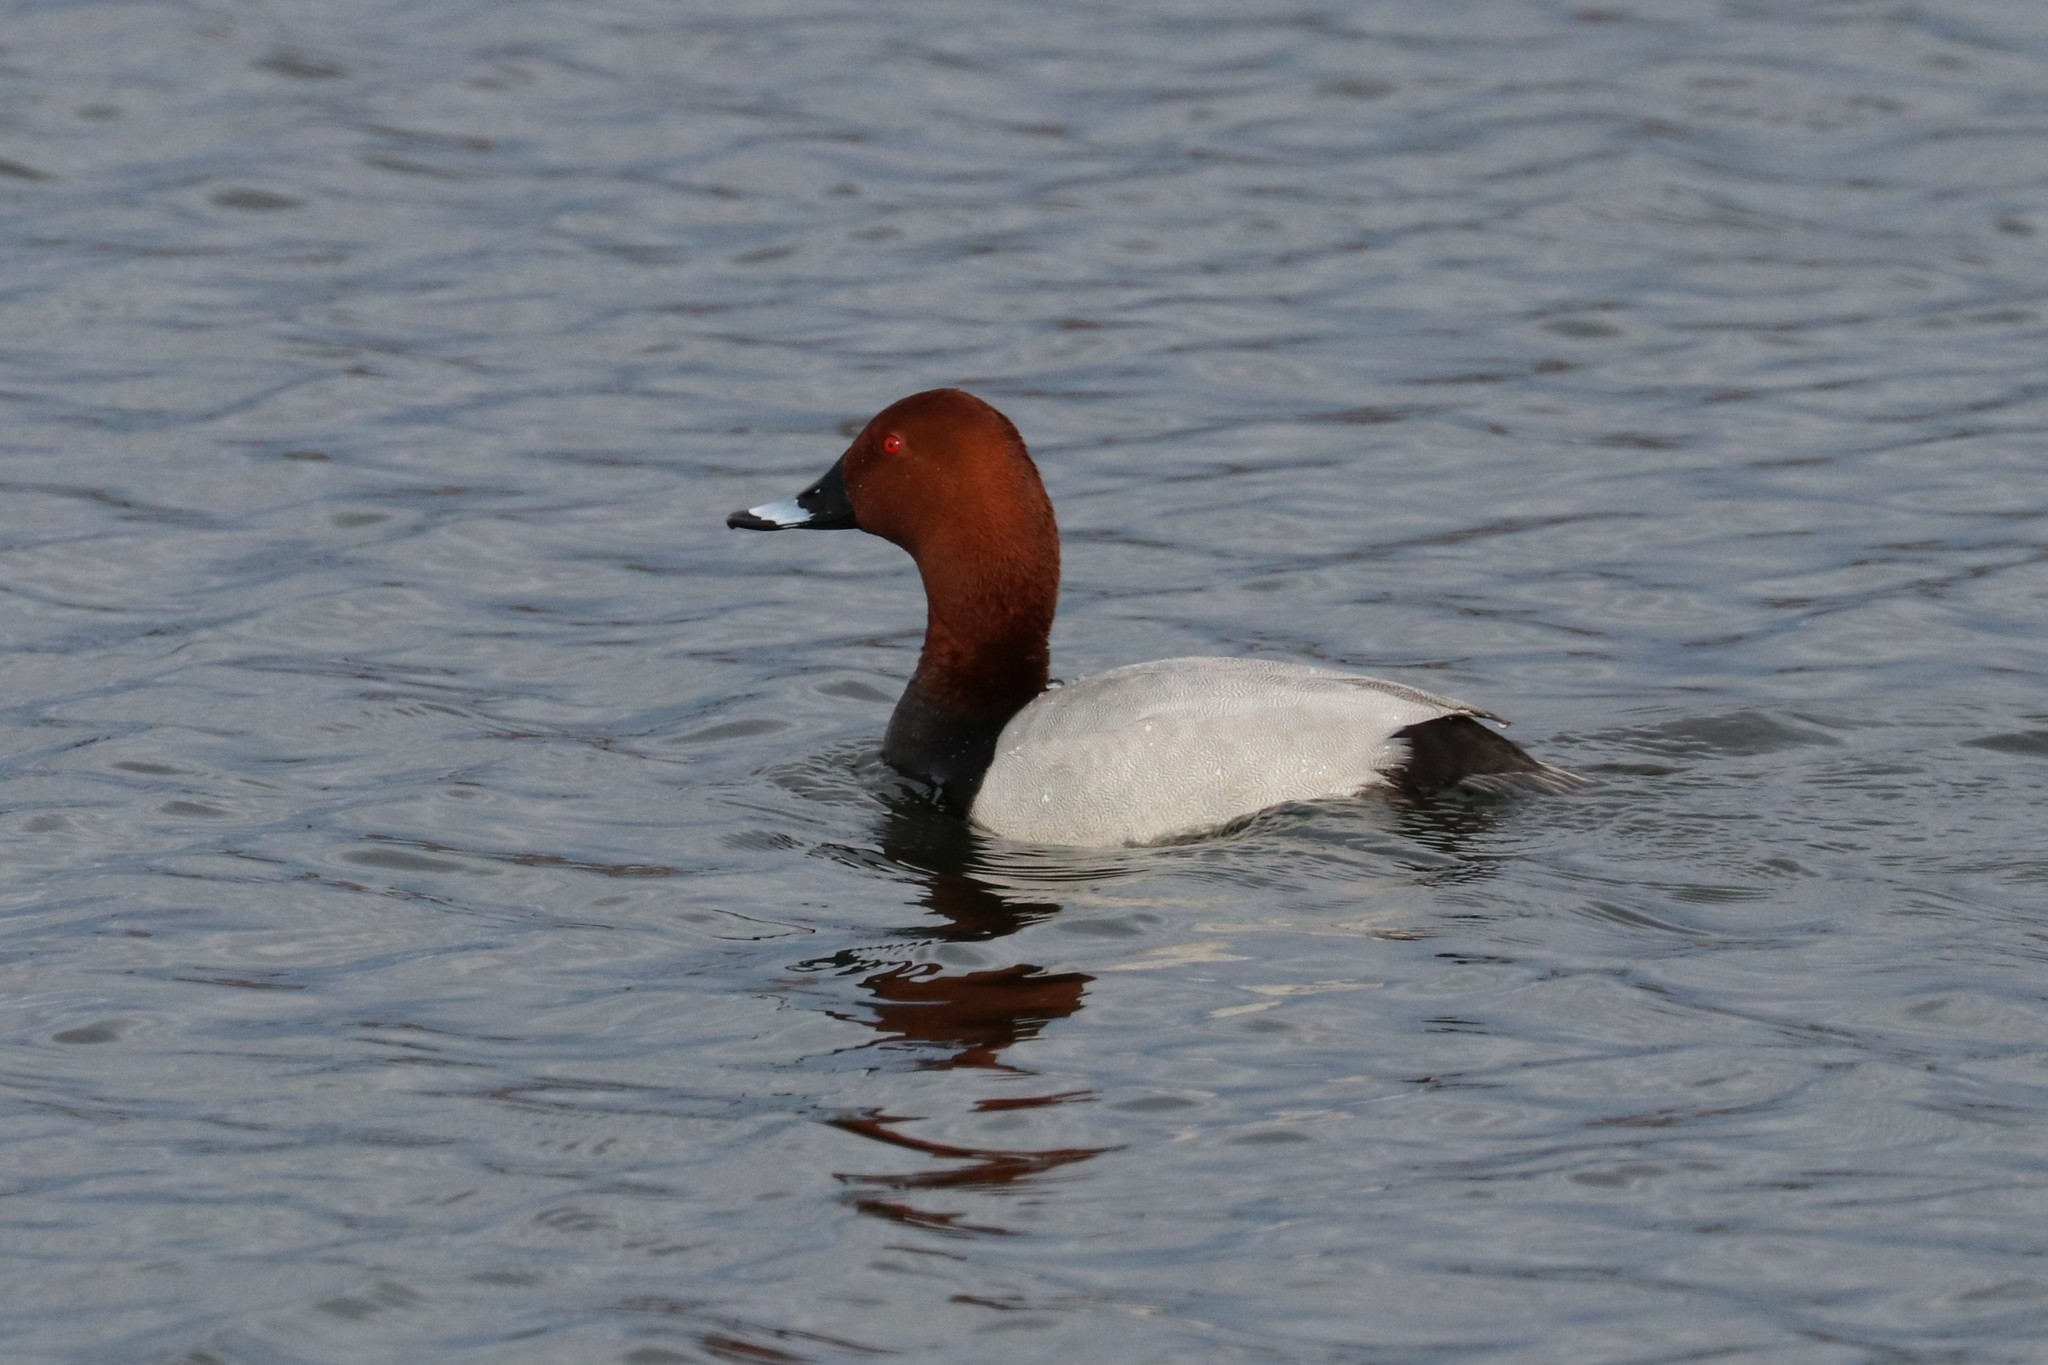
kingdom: Animalia
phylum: Chordata
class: Aves
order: Anseriformes
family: Anatidae
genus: Aythya
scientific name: Aythya ferina
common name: Common pochard
